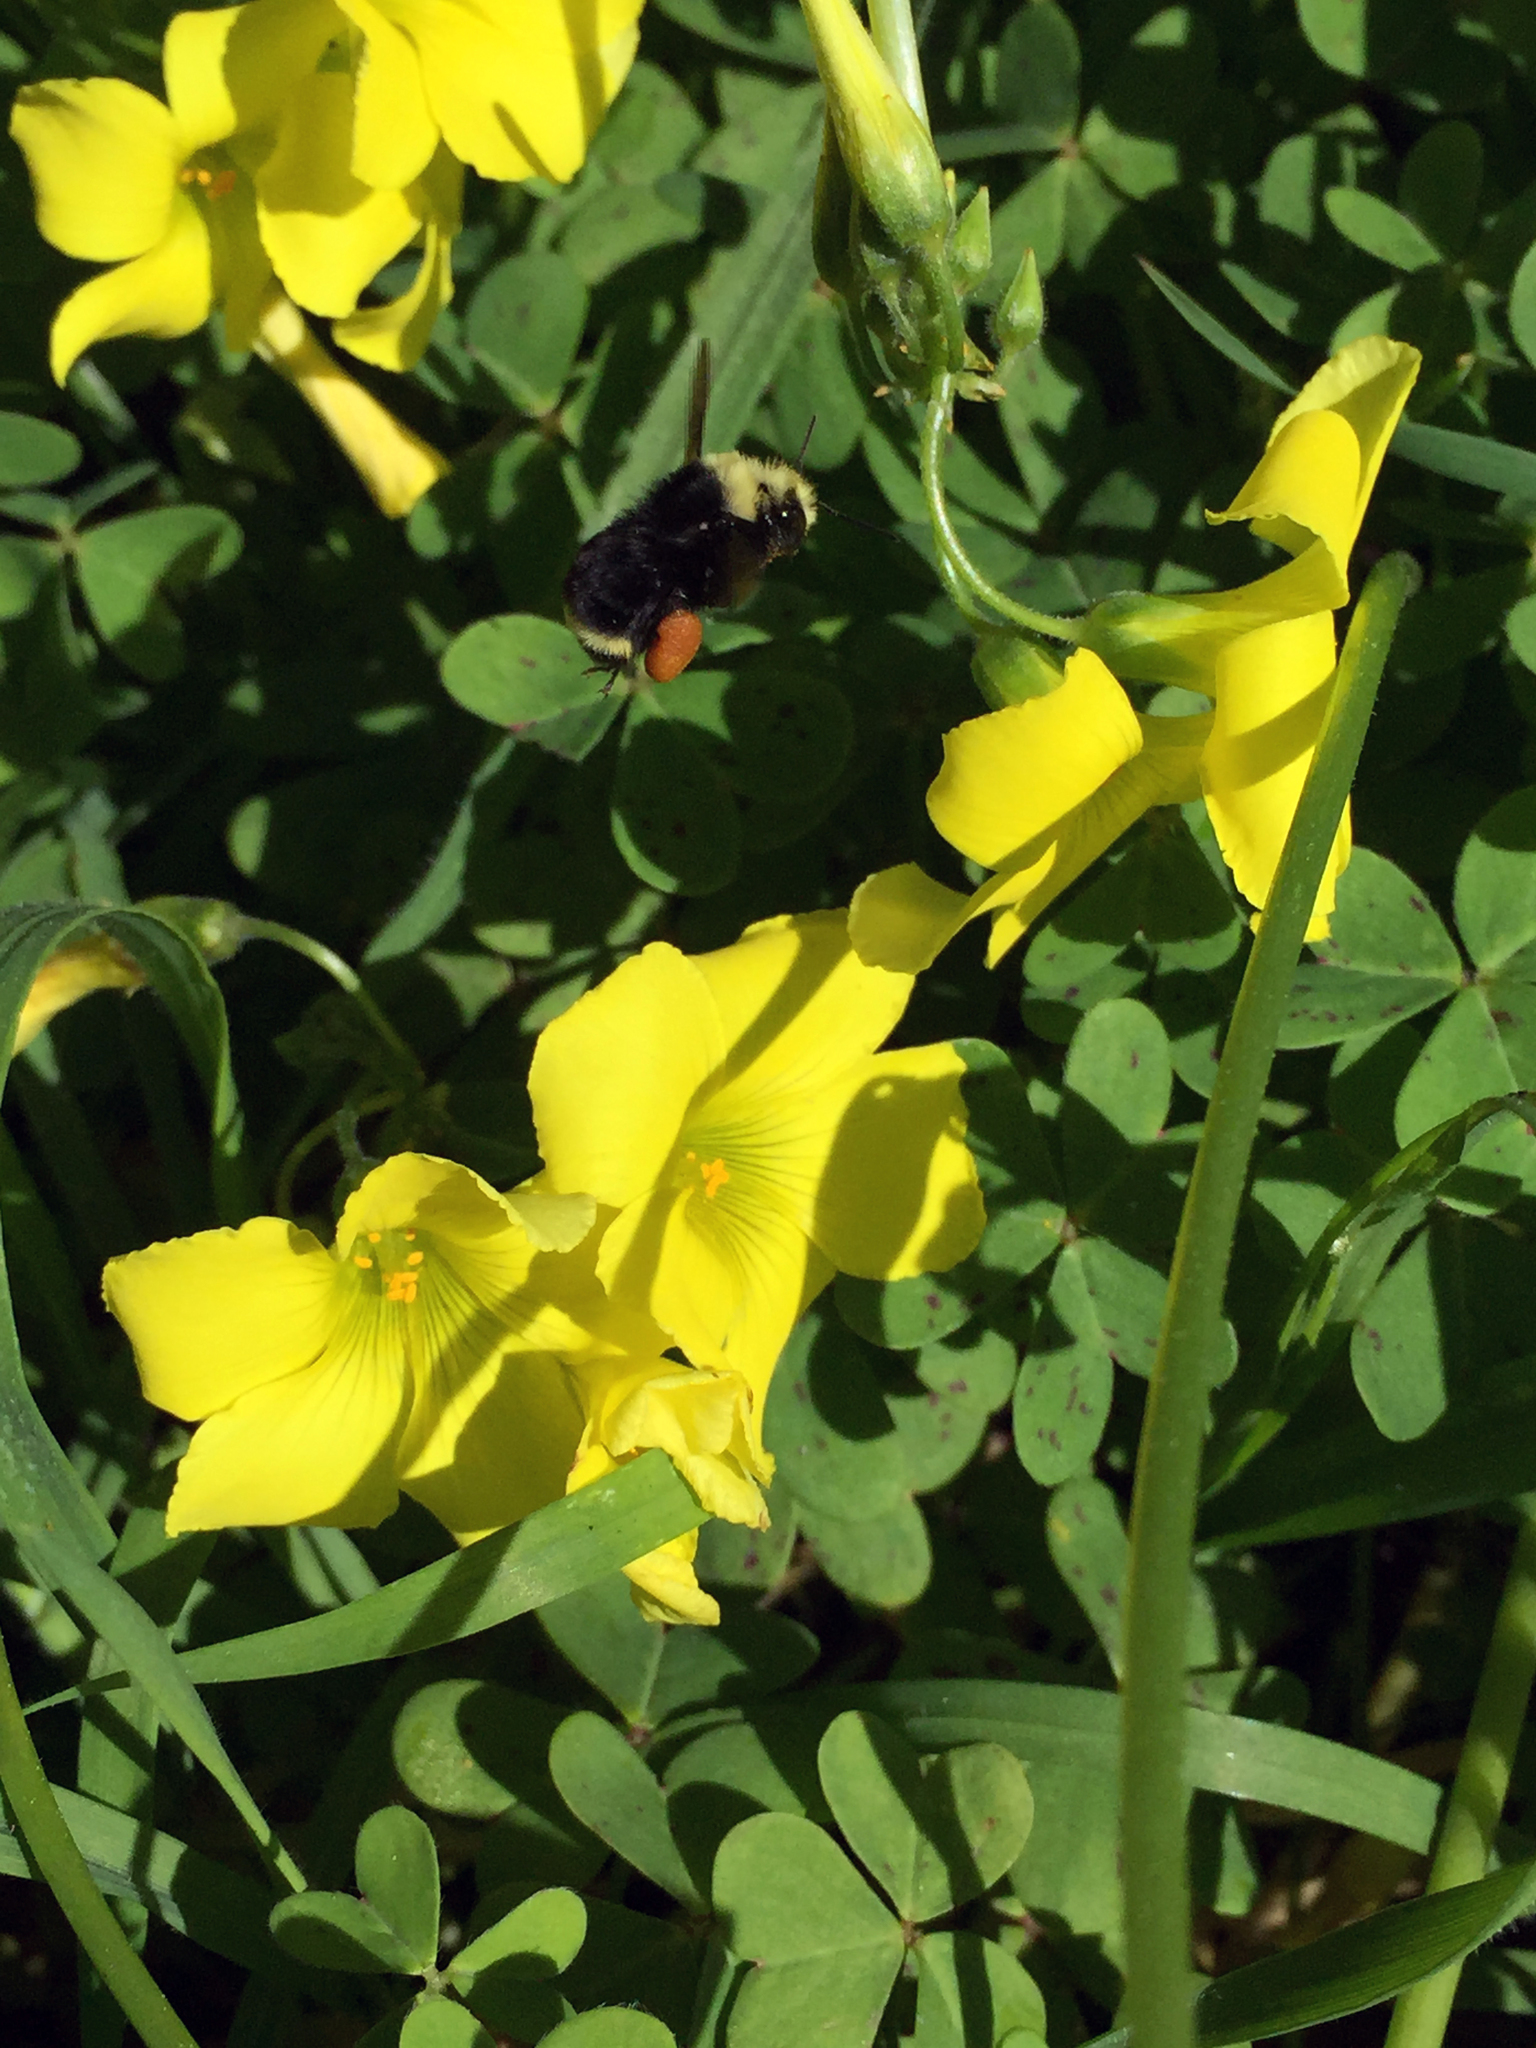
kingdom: Animalia
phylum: Arthropoda
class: Insecta
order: Hymenoptera
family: Apidae
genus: Pyrobombus
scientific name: Pyrobombus
